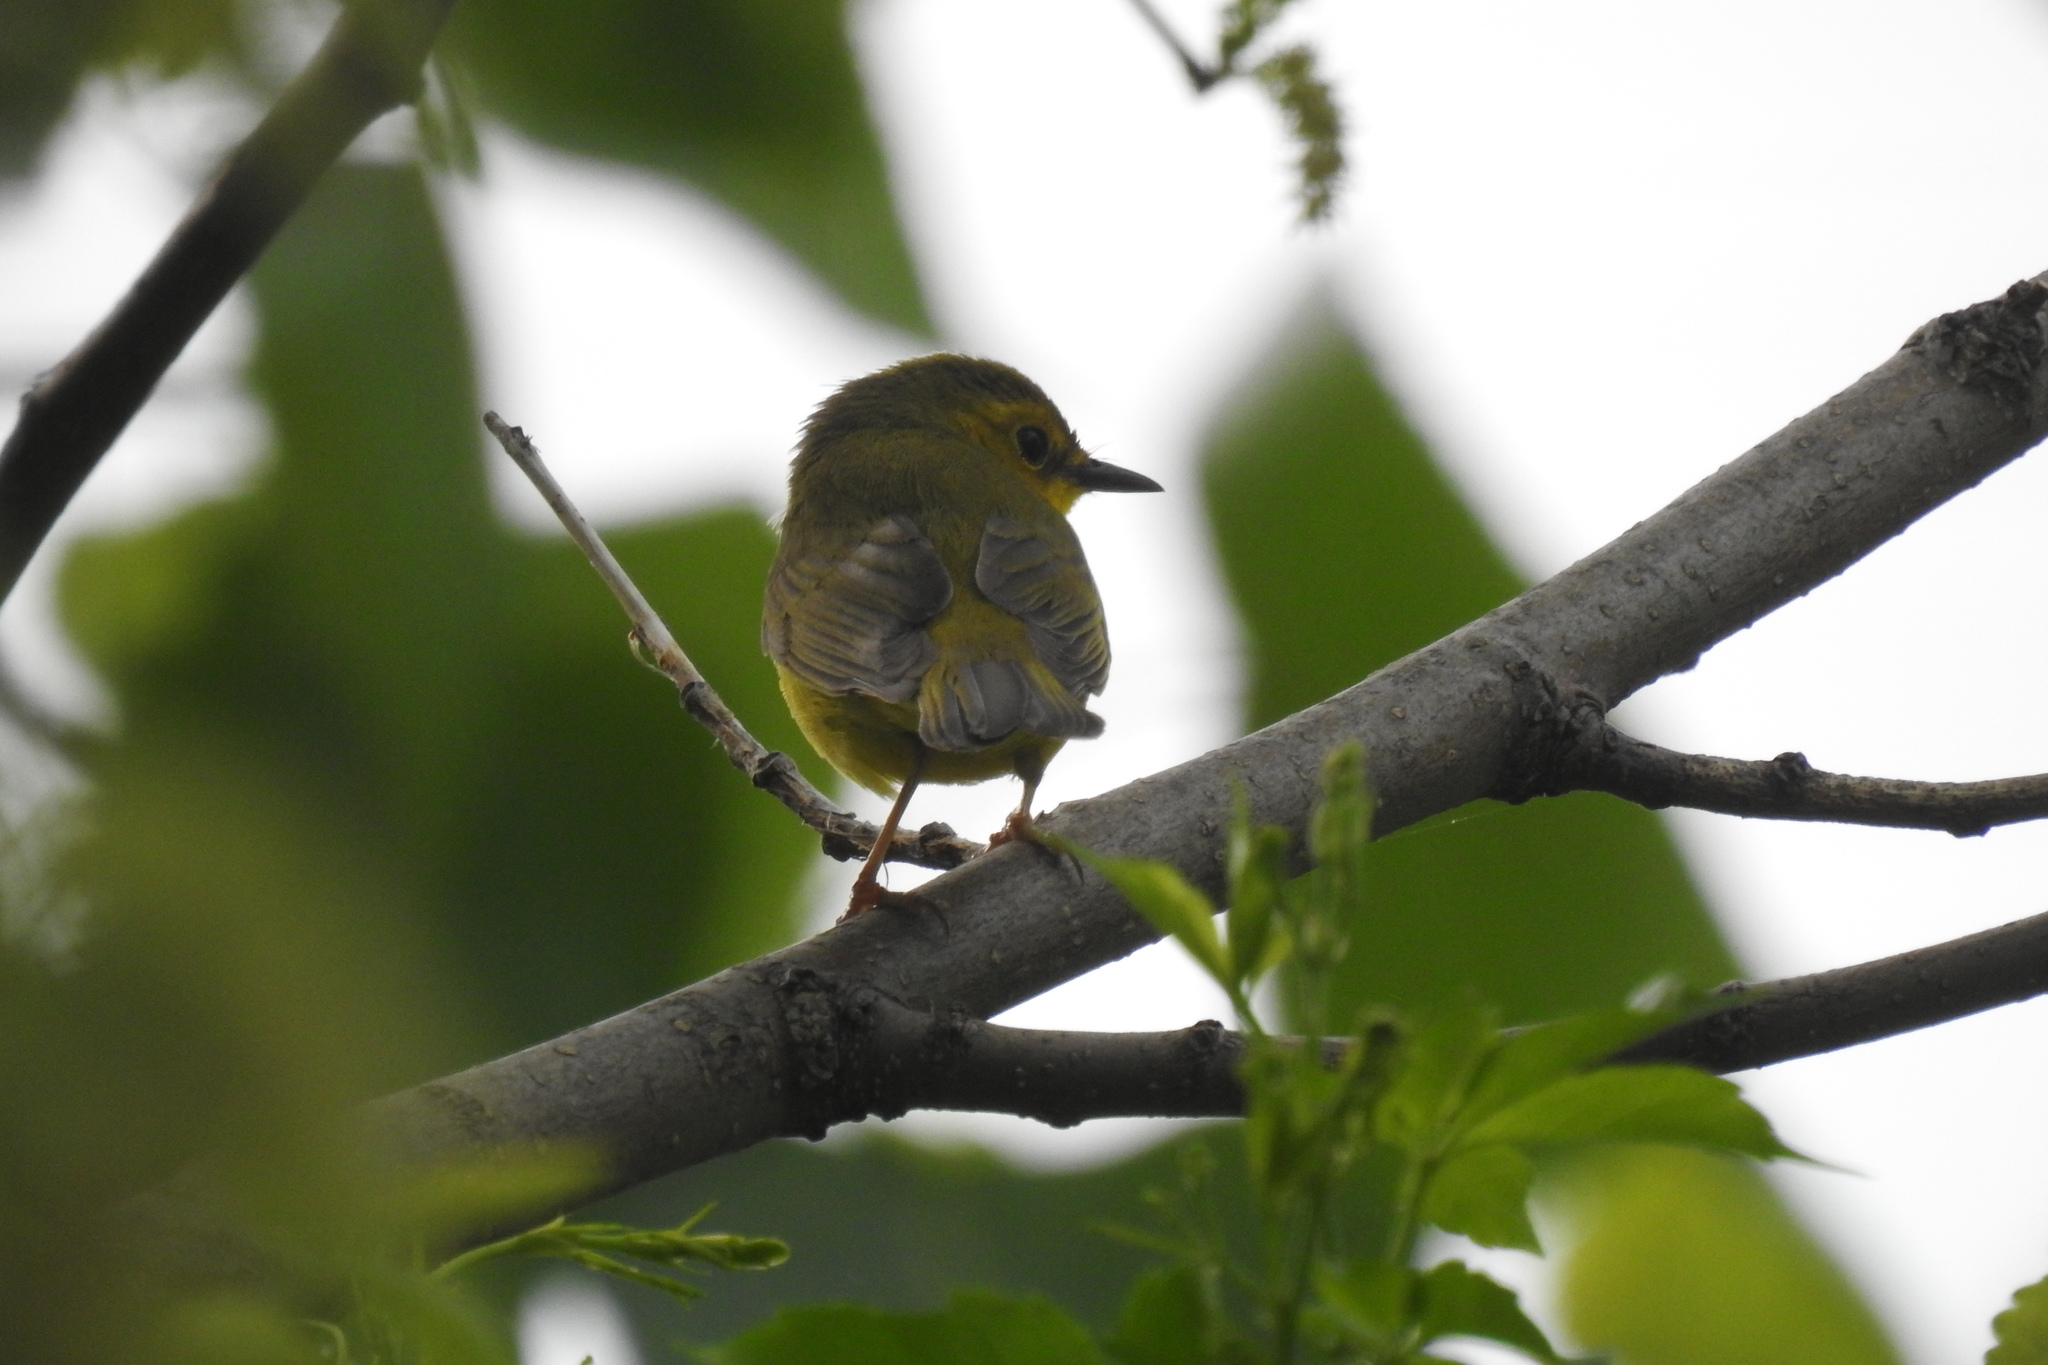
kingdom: Animalia
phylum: Chordata
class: Aves
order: Passeriformes
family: Parulidae
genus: Setophaga
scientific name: Setophaga citrina
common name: Hooded warbler
